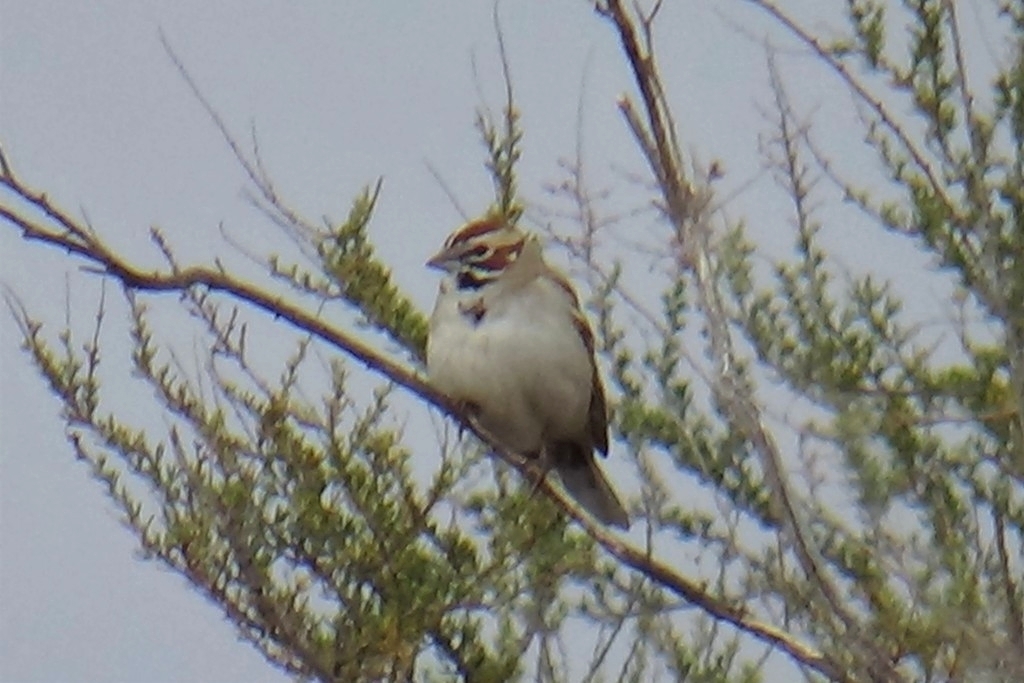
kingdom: Animalia
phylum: Chordata
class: Aves
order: Passeriformes
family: Passerellidae
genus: Chondestes
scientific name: Chondestes grammacus
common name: Lark sparrow
